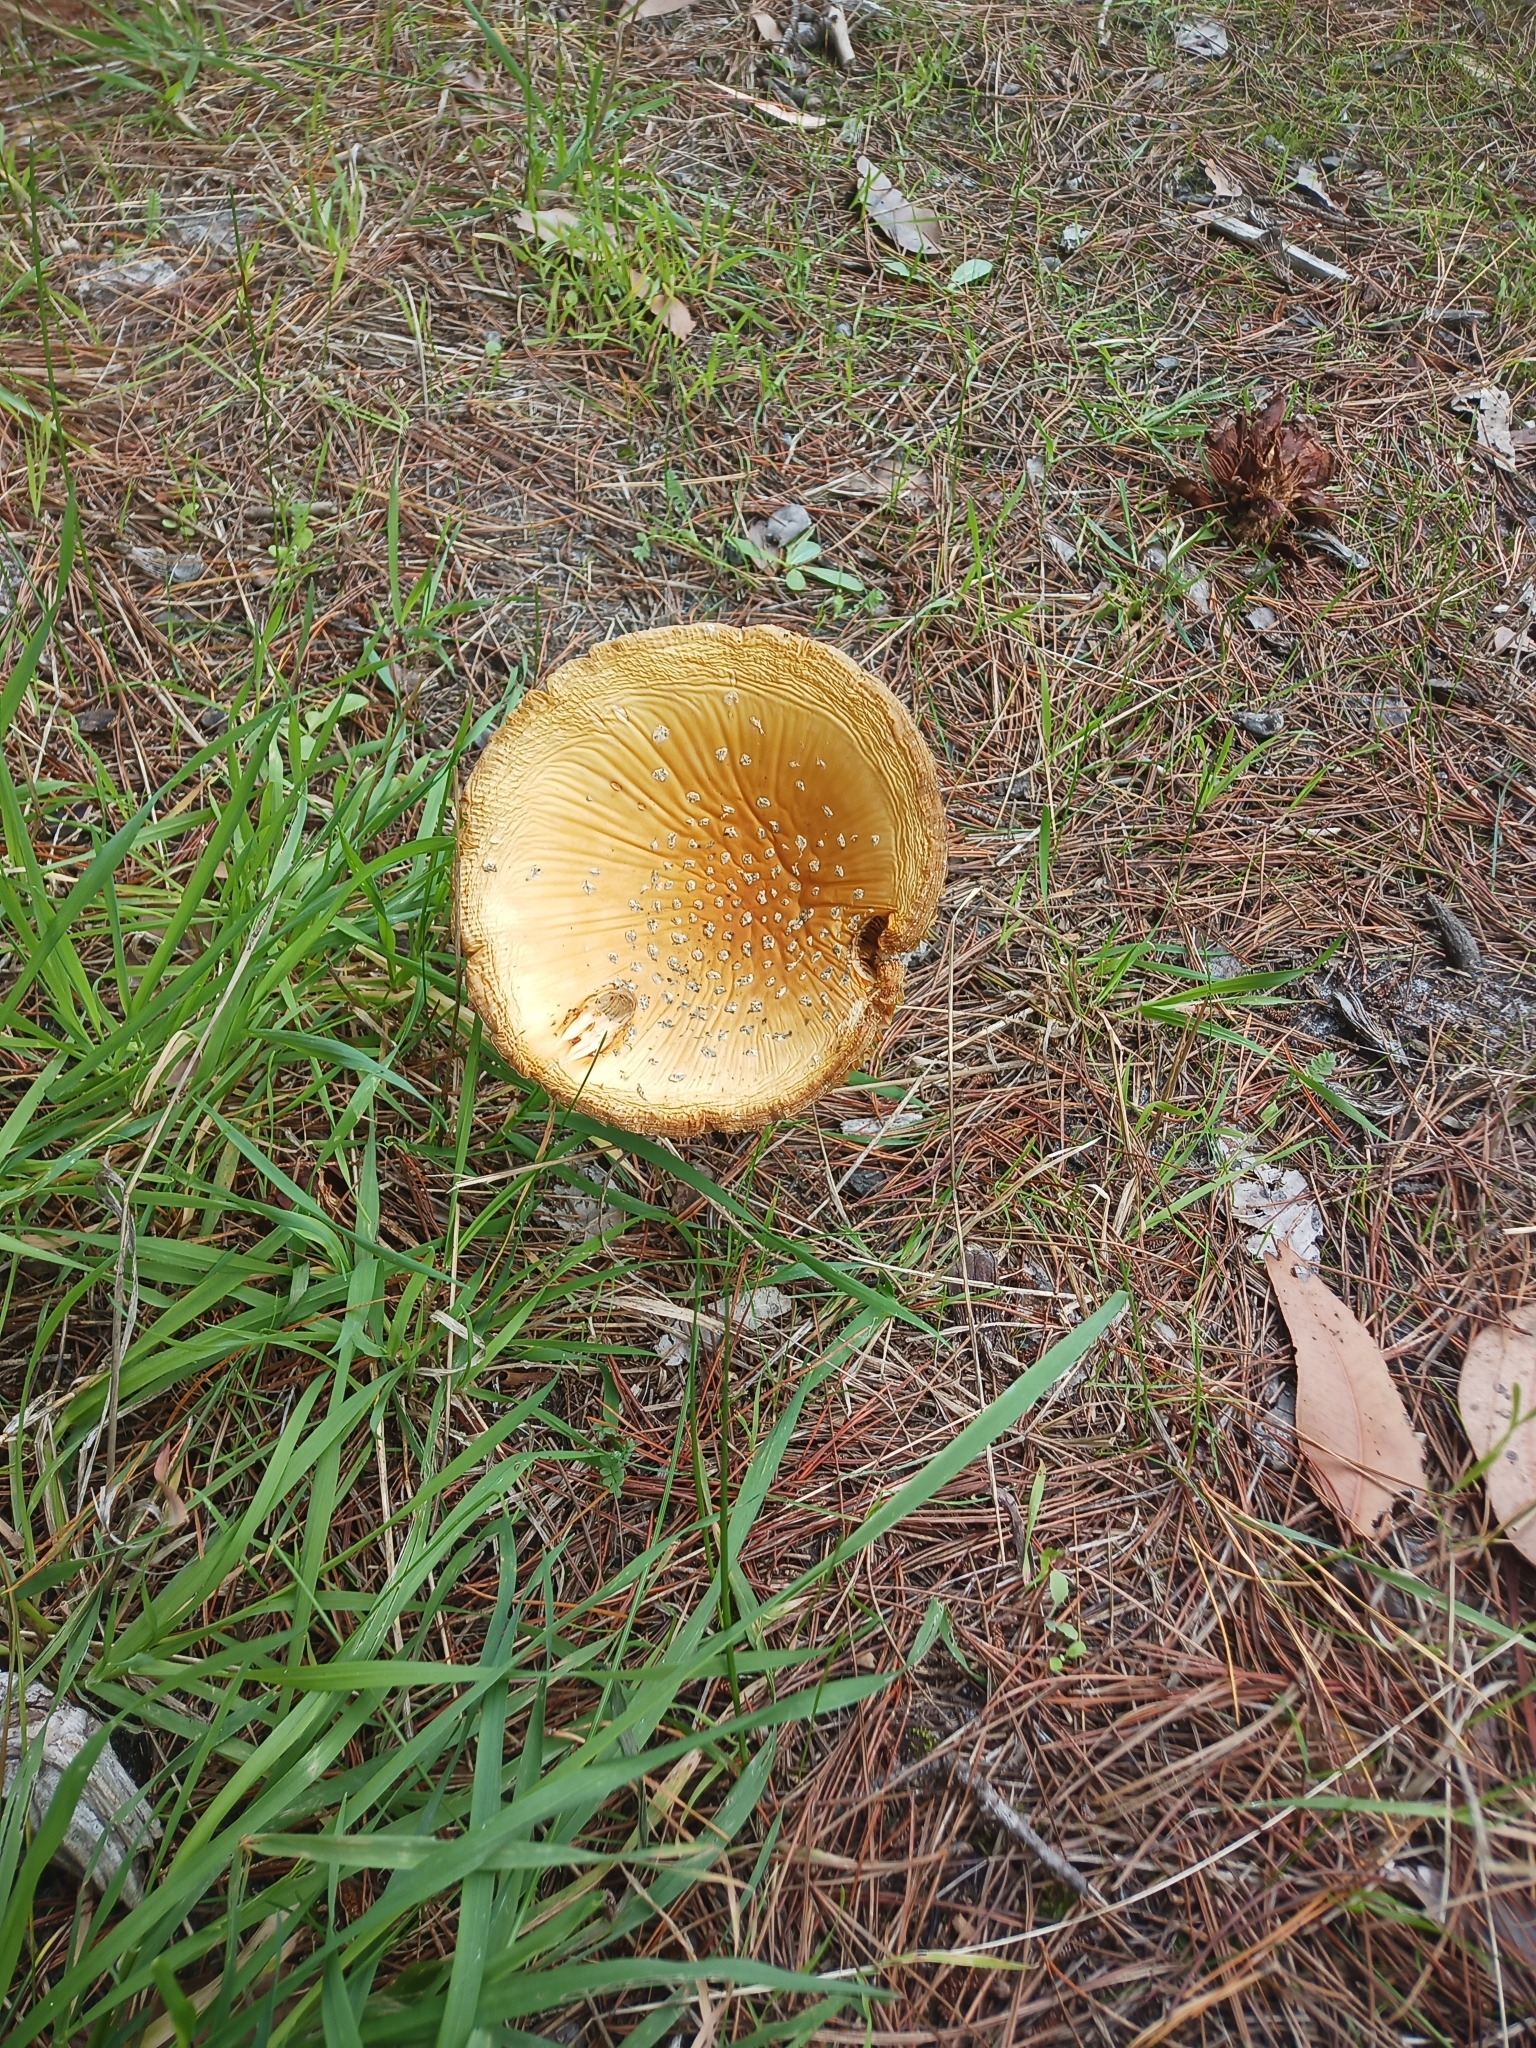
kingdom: Fungi
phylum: Basidiomycota
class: Agaricomycetes
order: Agaricales
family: Amanitaceae
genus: Amanita
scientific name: Amanita muscaria
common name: Fly agaric
